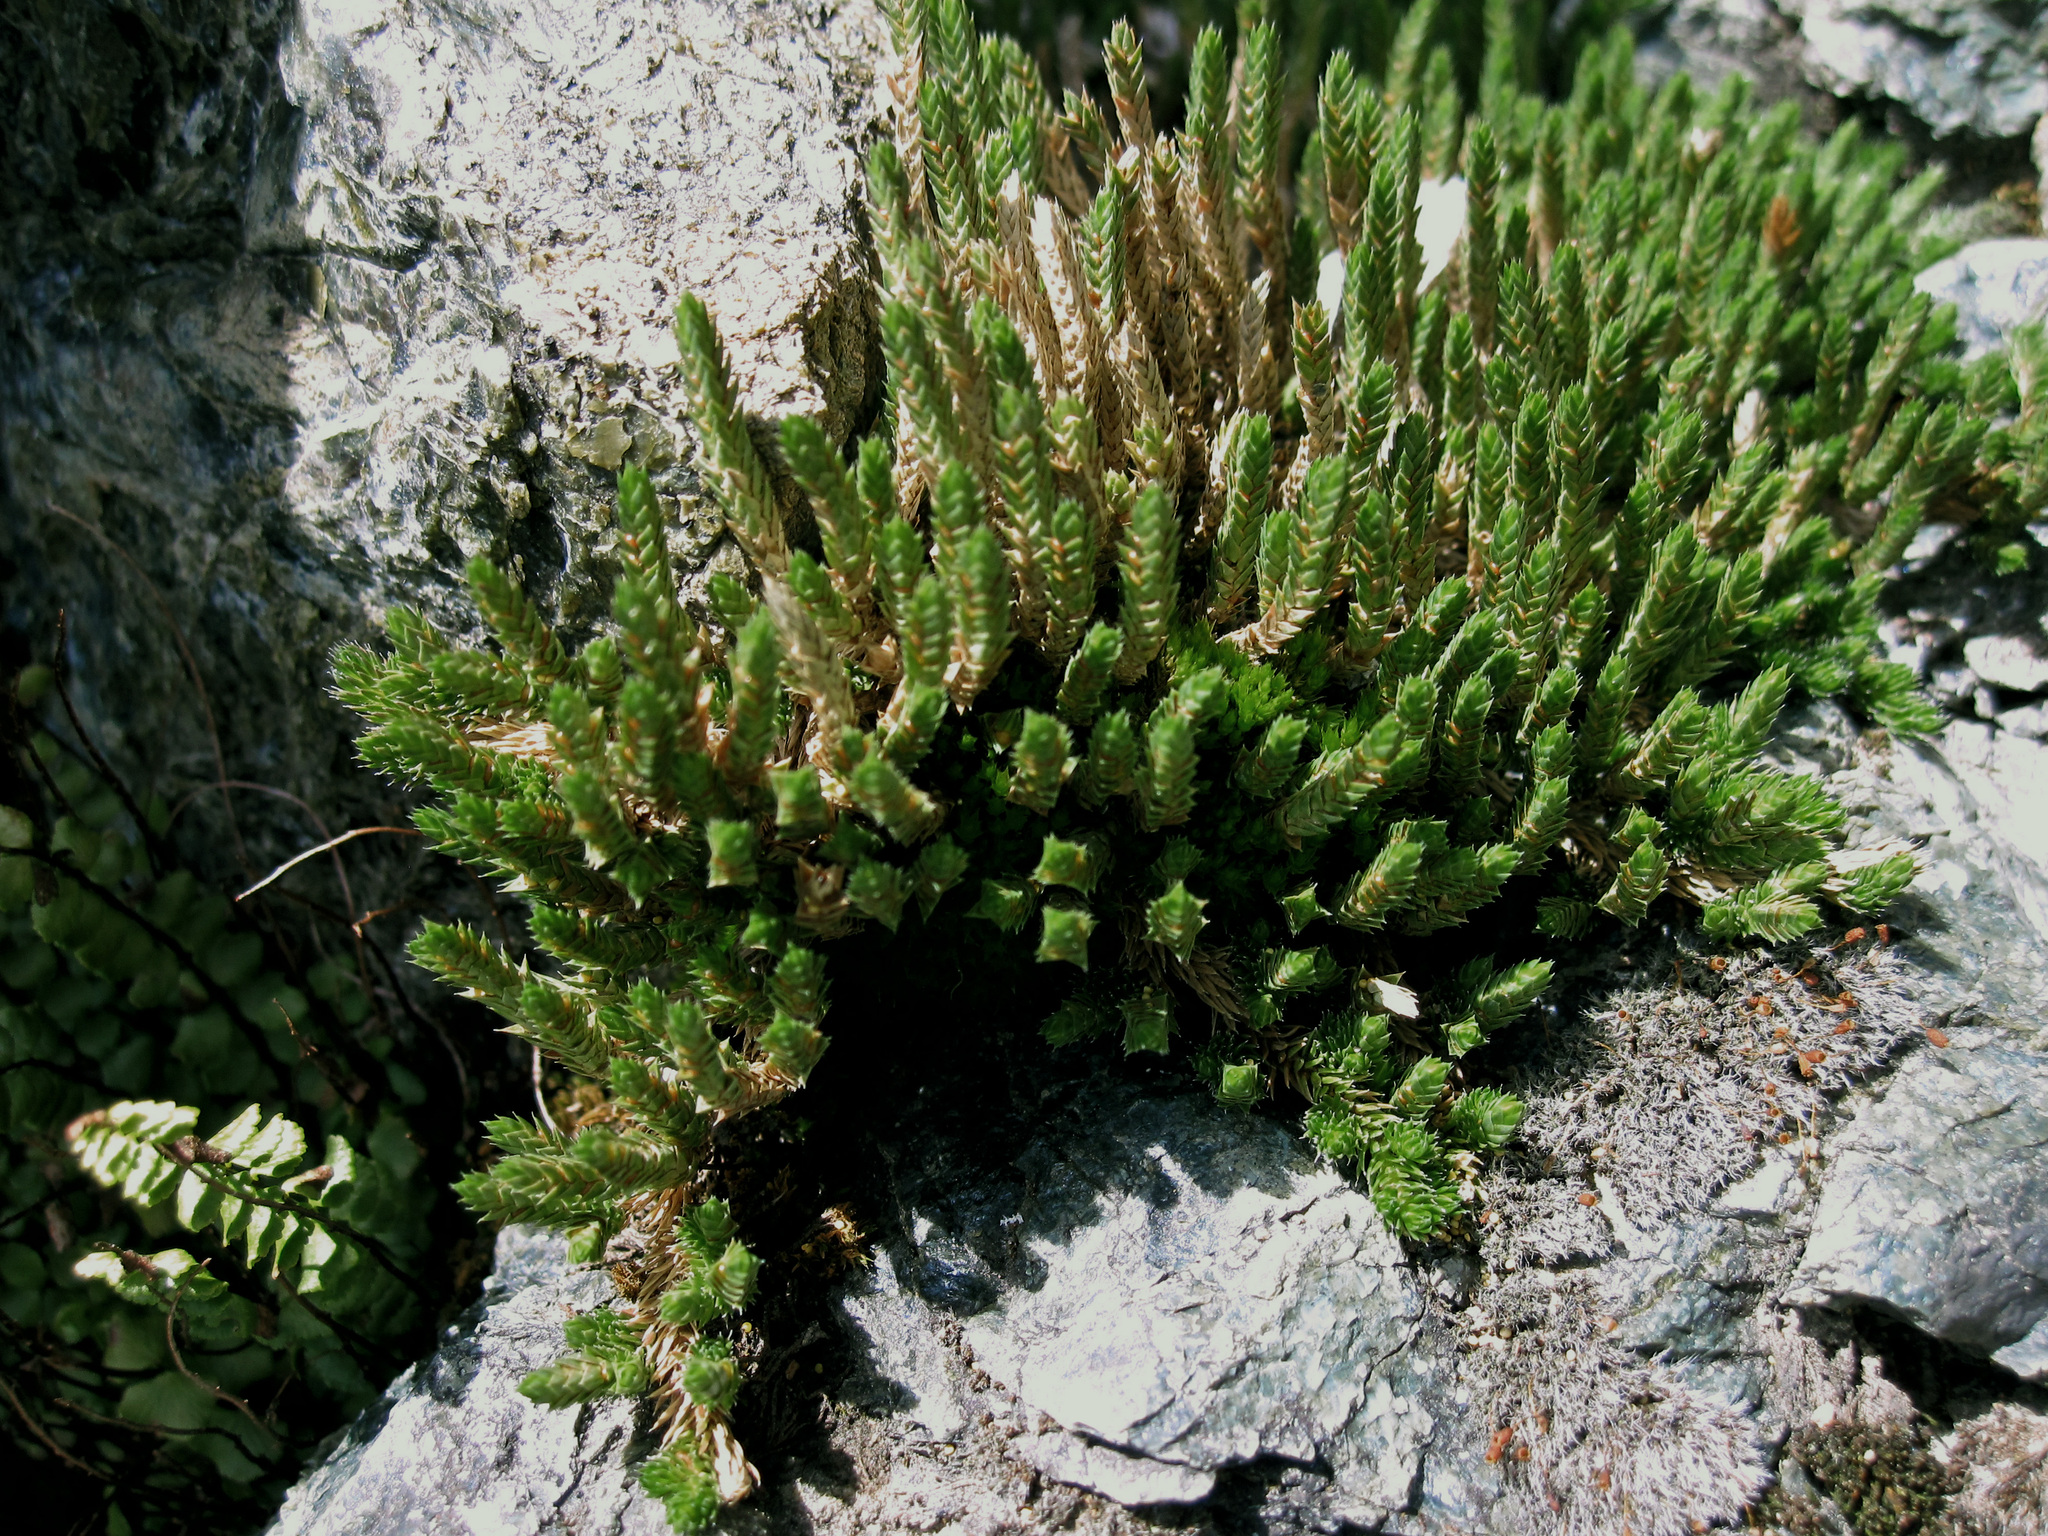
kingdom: Plantae
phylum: Tracheophyta
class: Lycopodiopsida
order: Selaginellales
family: Selaginellaceae
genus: Selaginella
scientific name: Selaginella wallacei
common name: Wallace's selaginella
